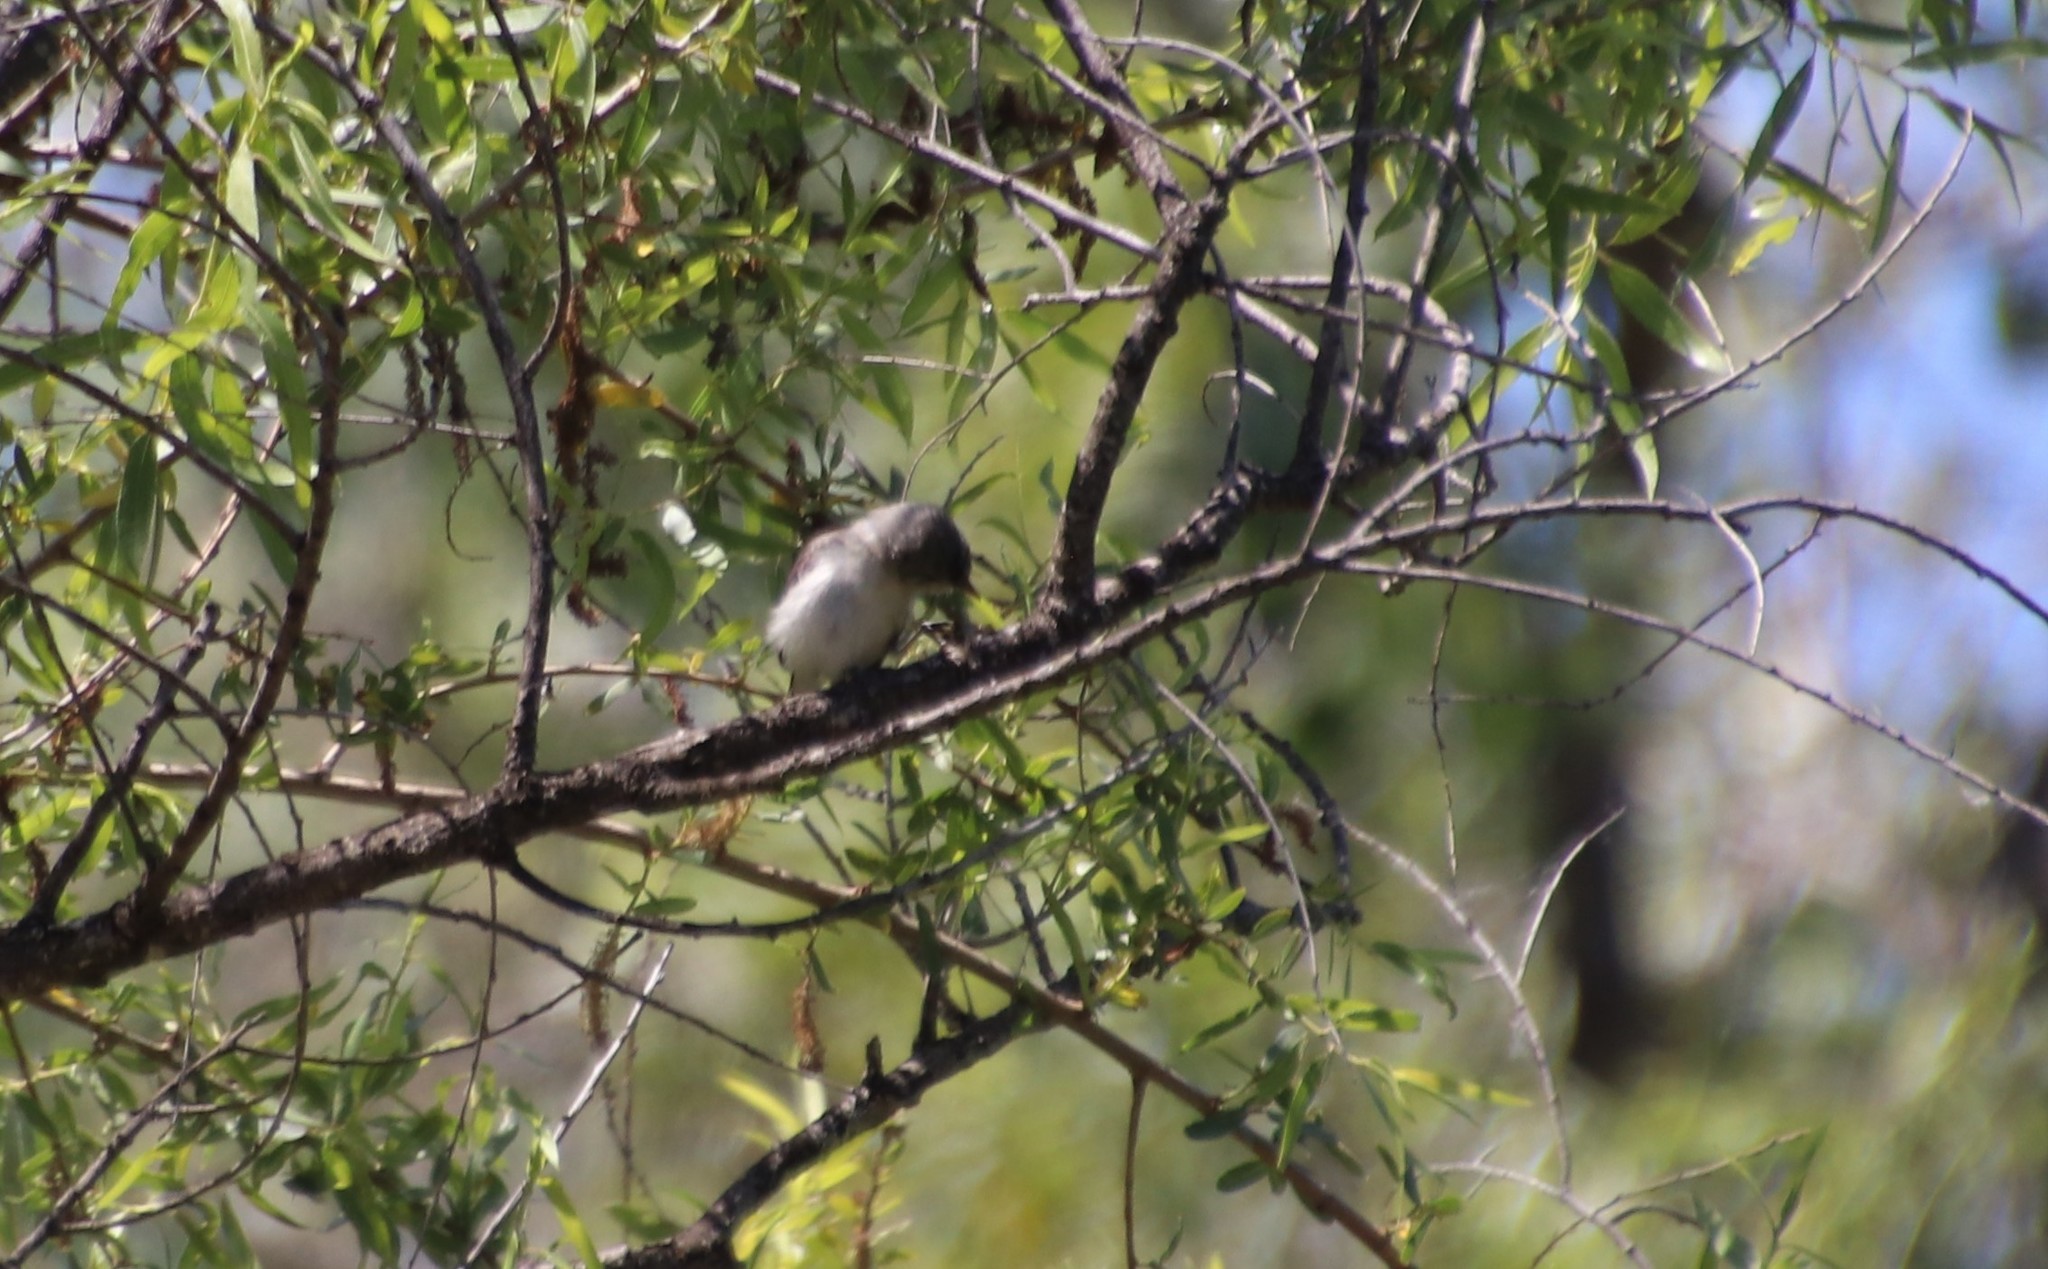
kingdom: Animalia
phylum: Chordata
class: Aves
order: Passeriformes
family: Vireonidae
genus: Vireo
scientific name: Vireo bellii
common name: Bell's vireo
